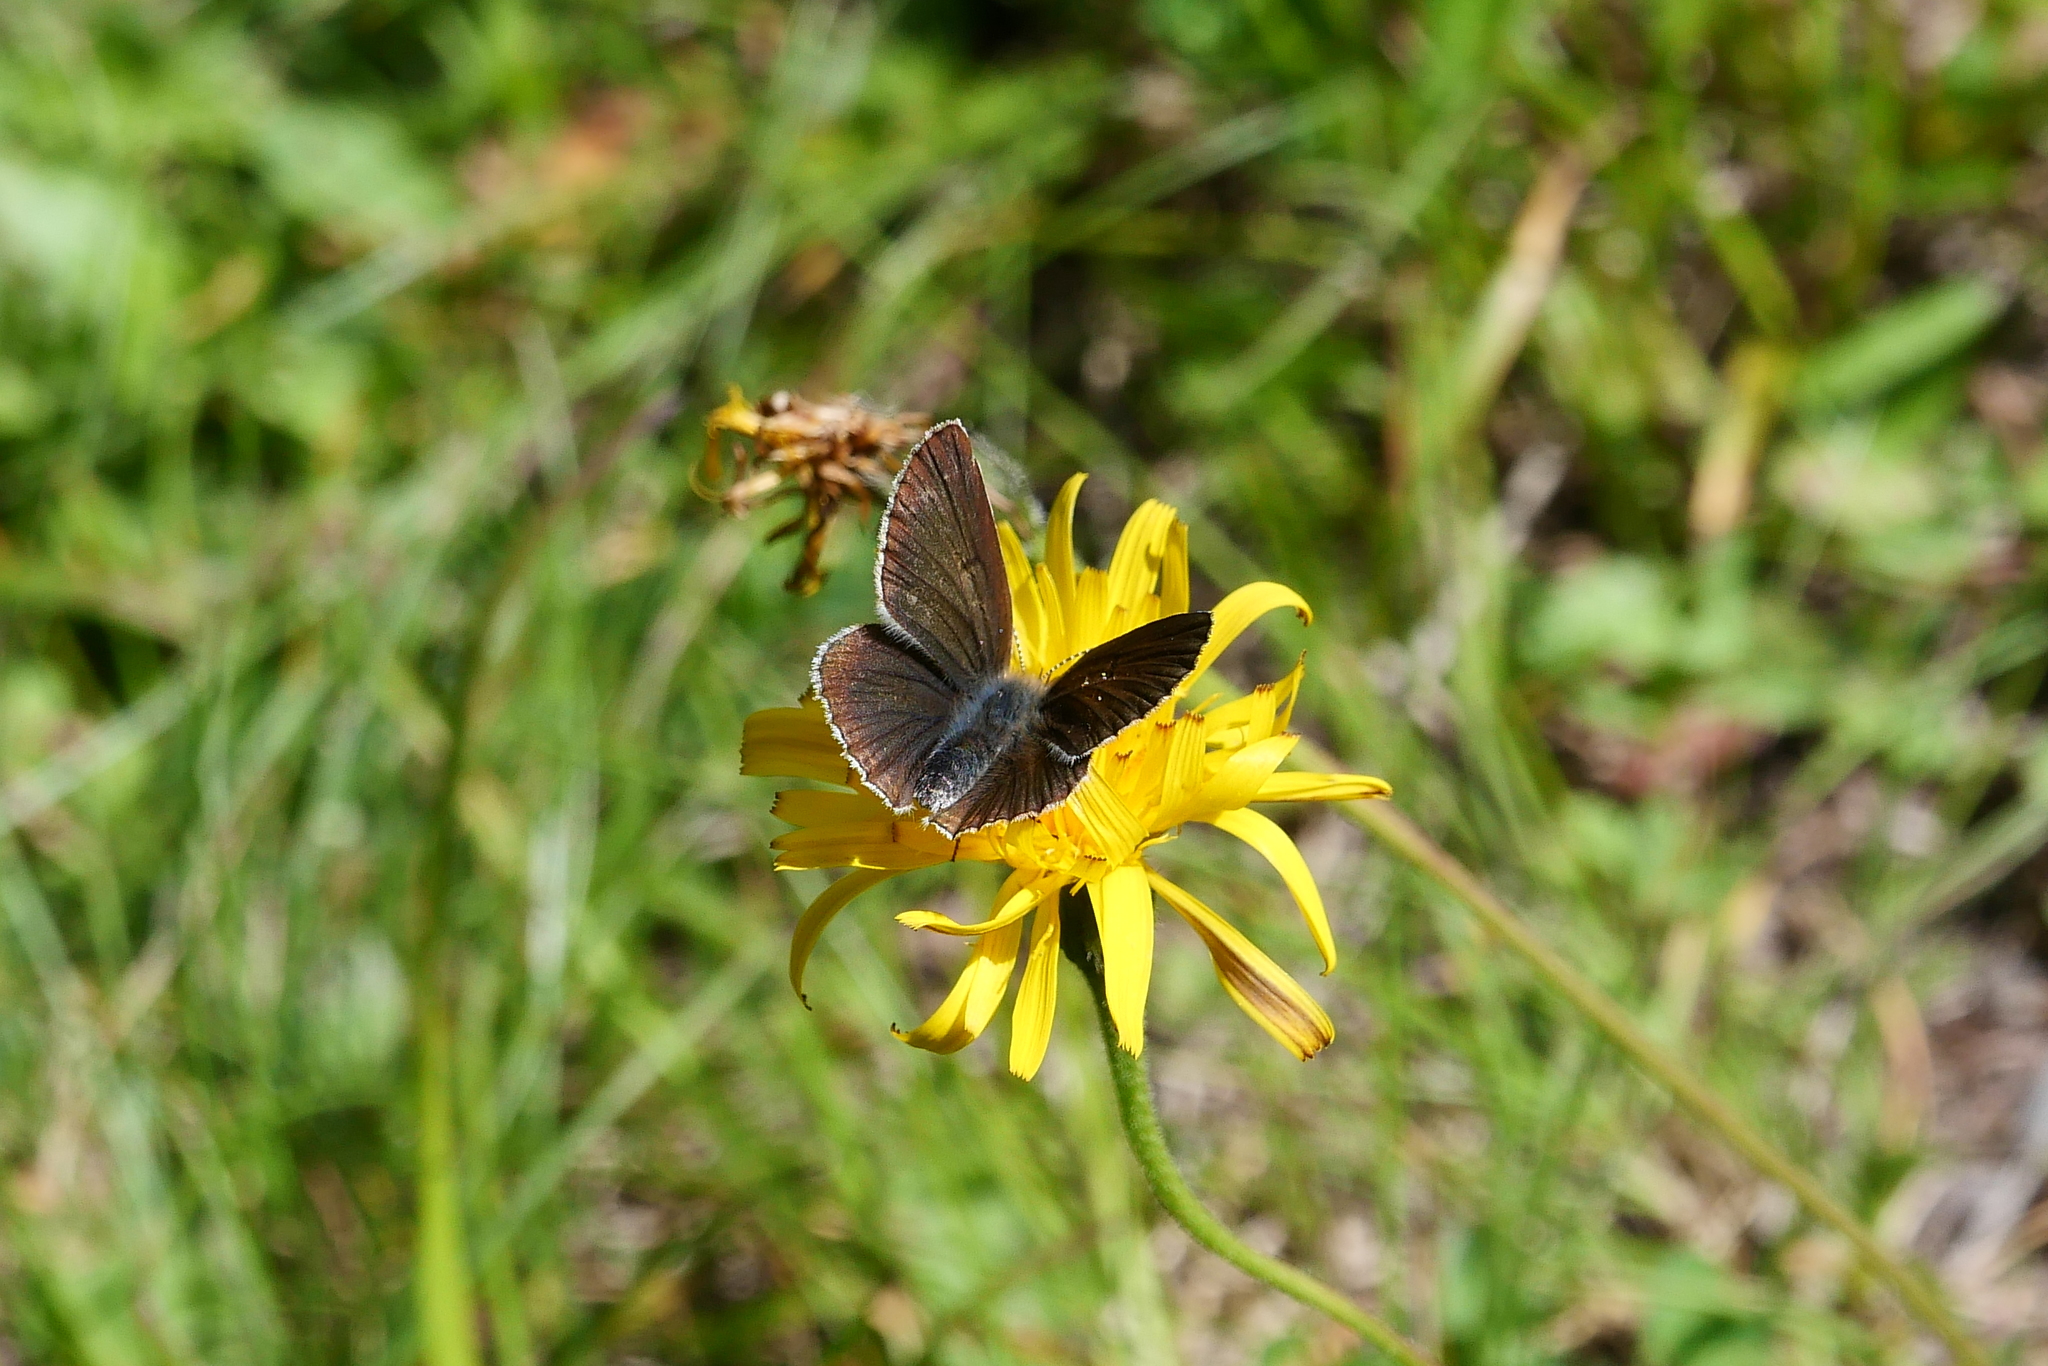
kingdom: Animalia
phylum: Arthropoda
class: Insecta
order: Lepidoptera
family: Lycaenidae
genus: Eumedonia
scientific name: Eumedonia eumedon
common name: Geranium argus
